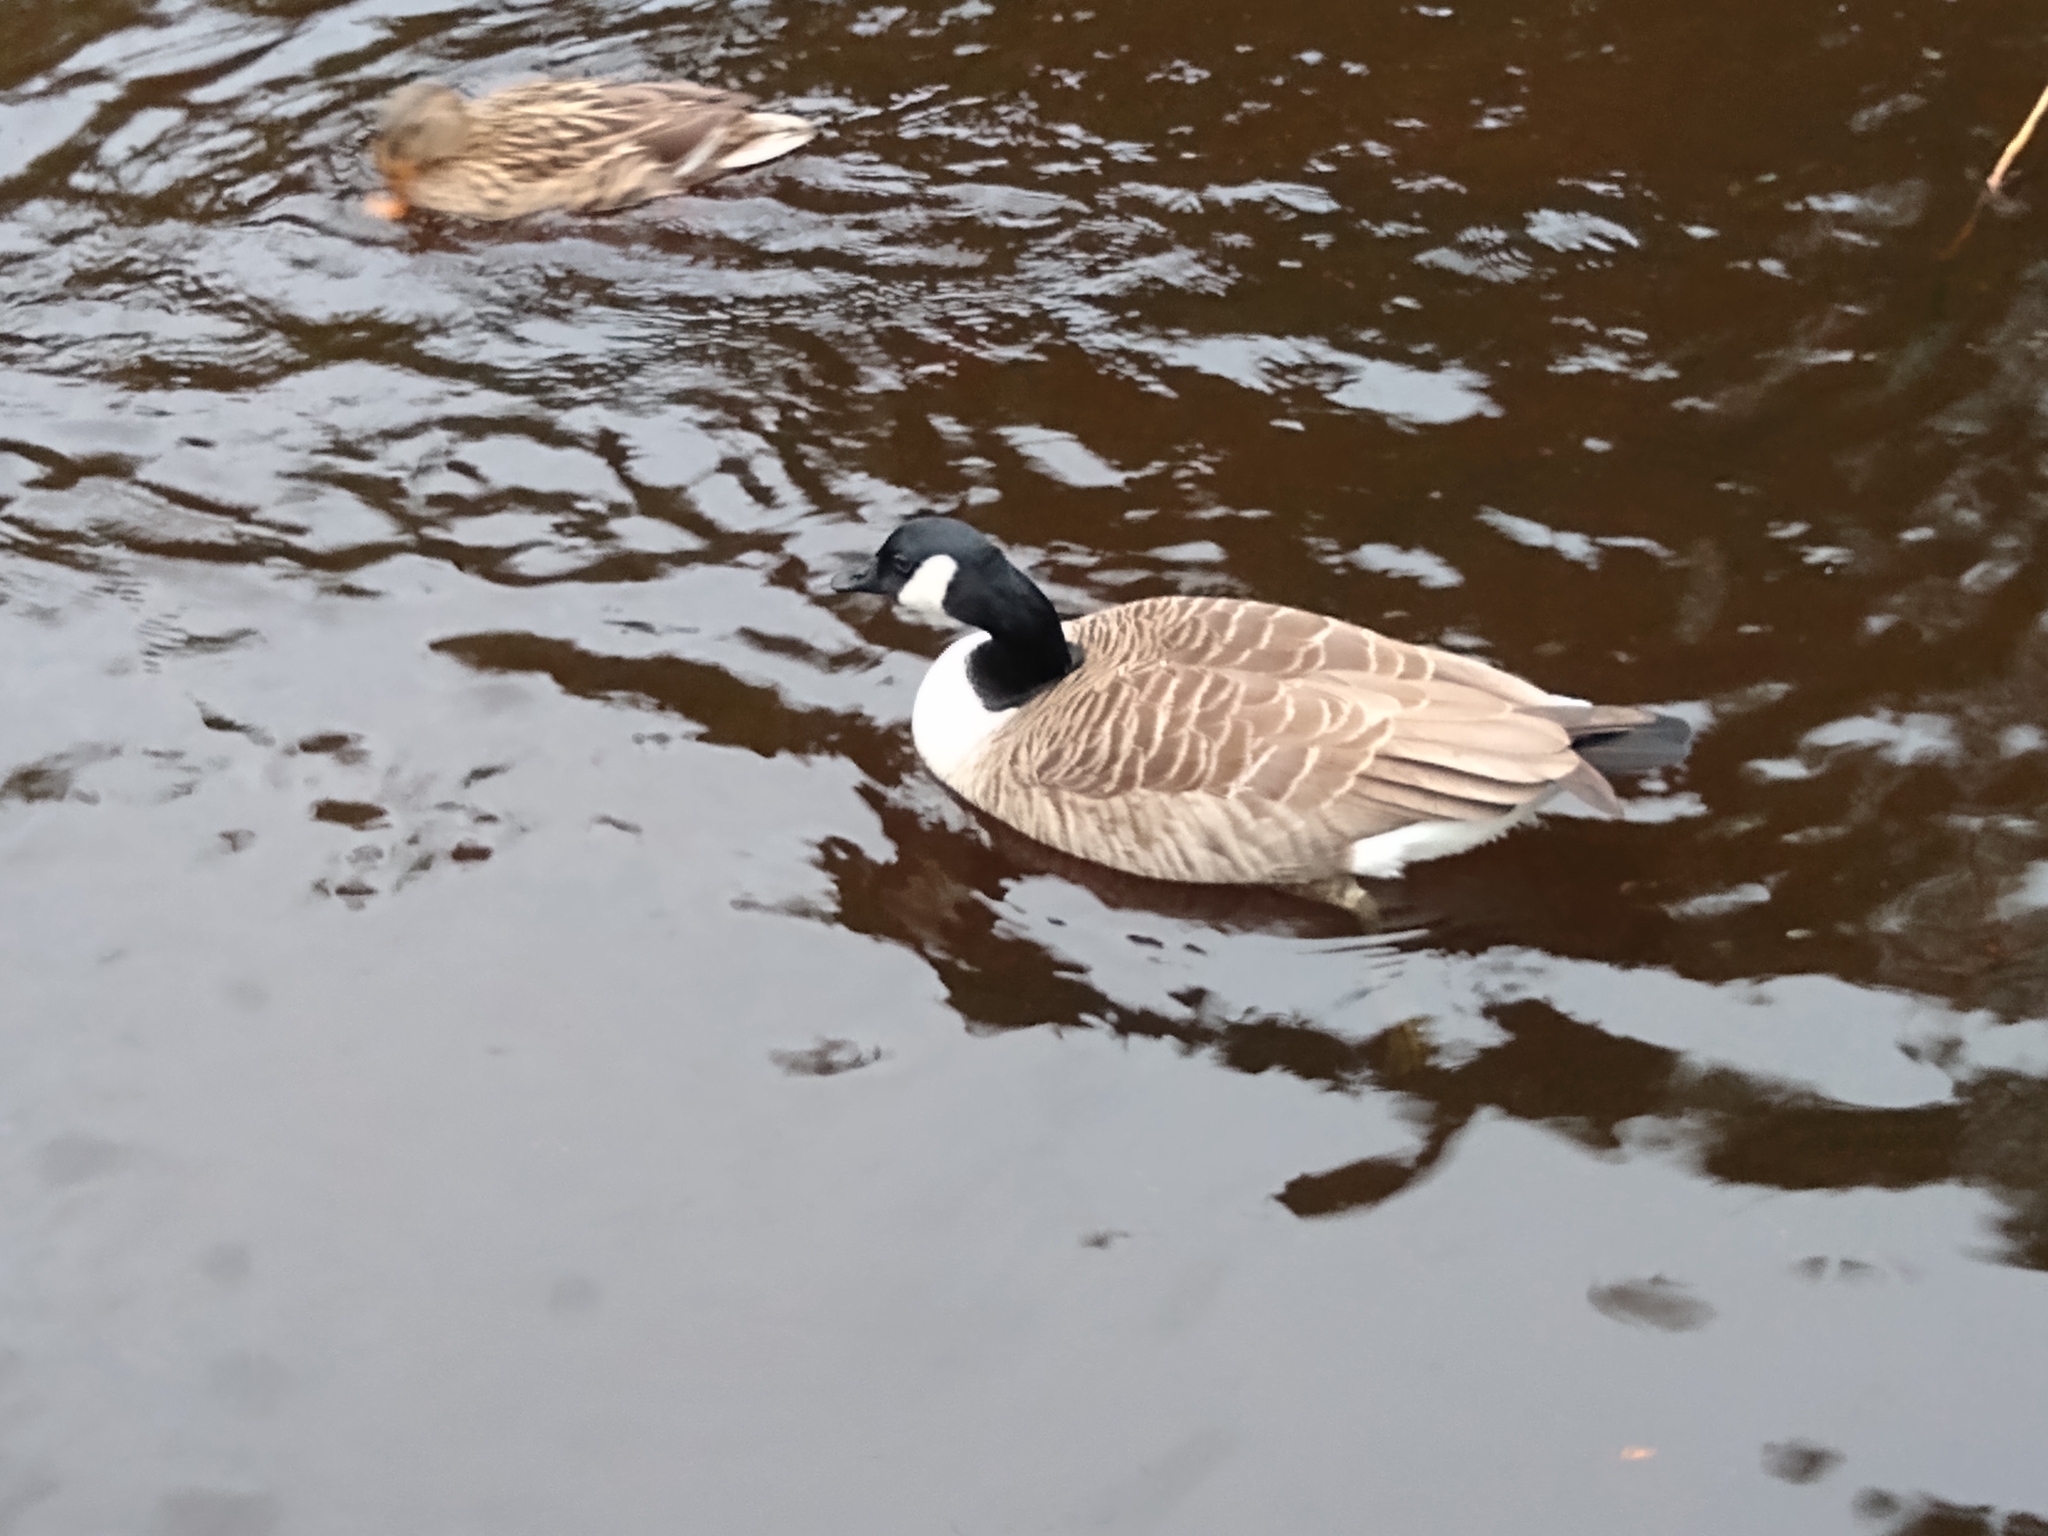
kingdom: Animalia
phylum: Chordata
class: Aves
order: Anseriformes
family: Anatidae
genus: Branta
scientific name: Branta canadensis
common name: Canada goose
